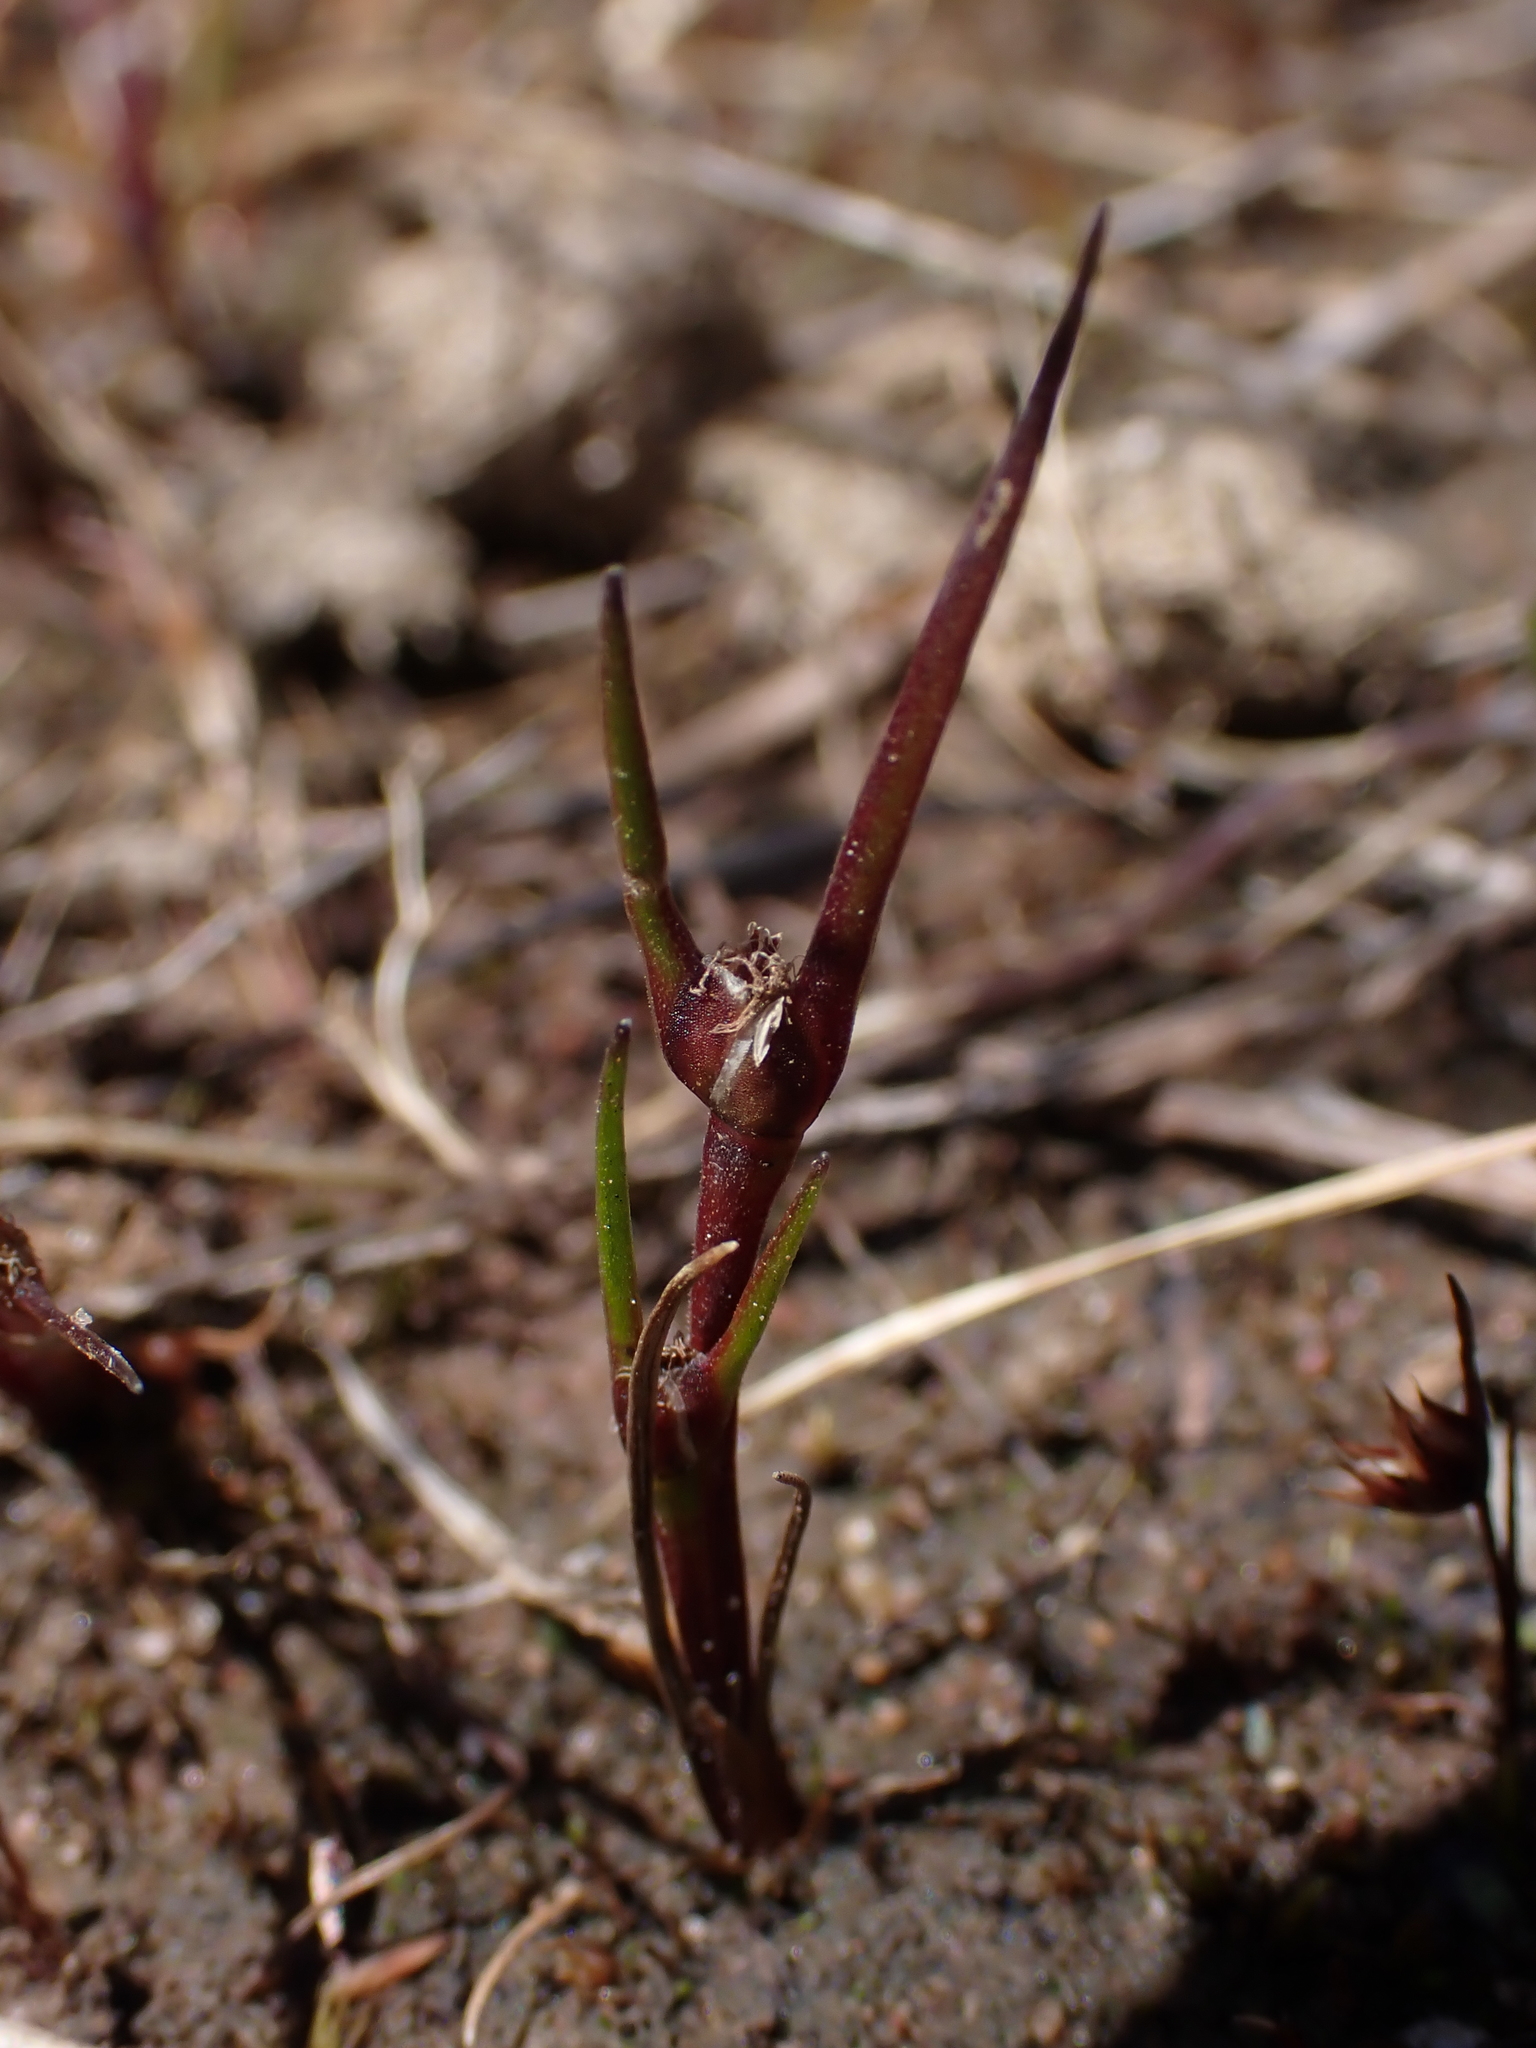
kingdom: Plantae
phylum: Tracheophyta
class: Liliopsida
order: Poales
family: Restionaceae
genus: Centrolepis
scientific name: Centrolepis aristata
